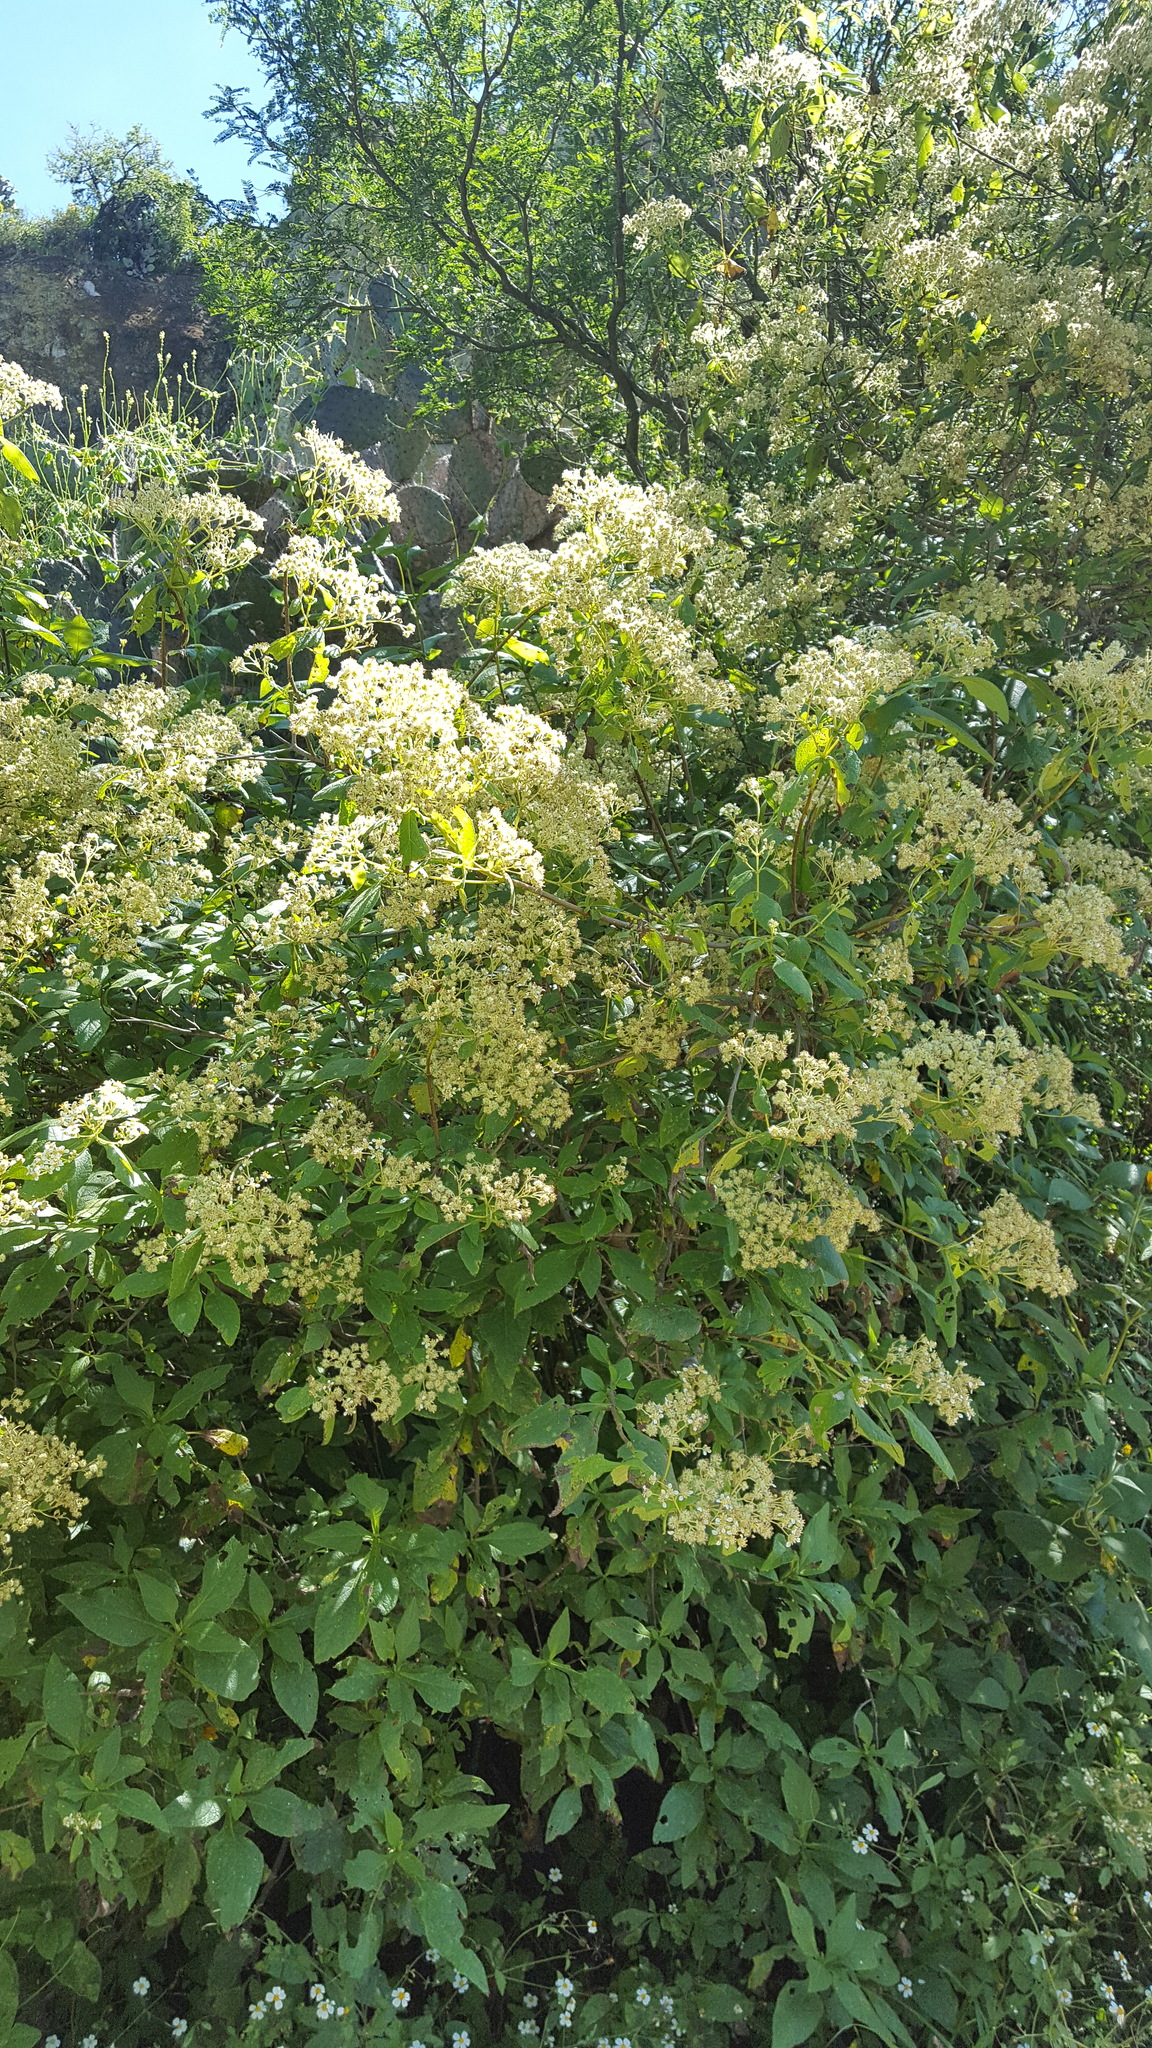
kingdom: Plantae
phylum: Tracheophyta
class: Magnoliopsida
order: Asterales
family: Asteraceae
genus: Montanoa
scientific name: Montanoa tomentosa
